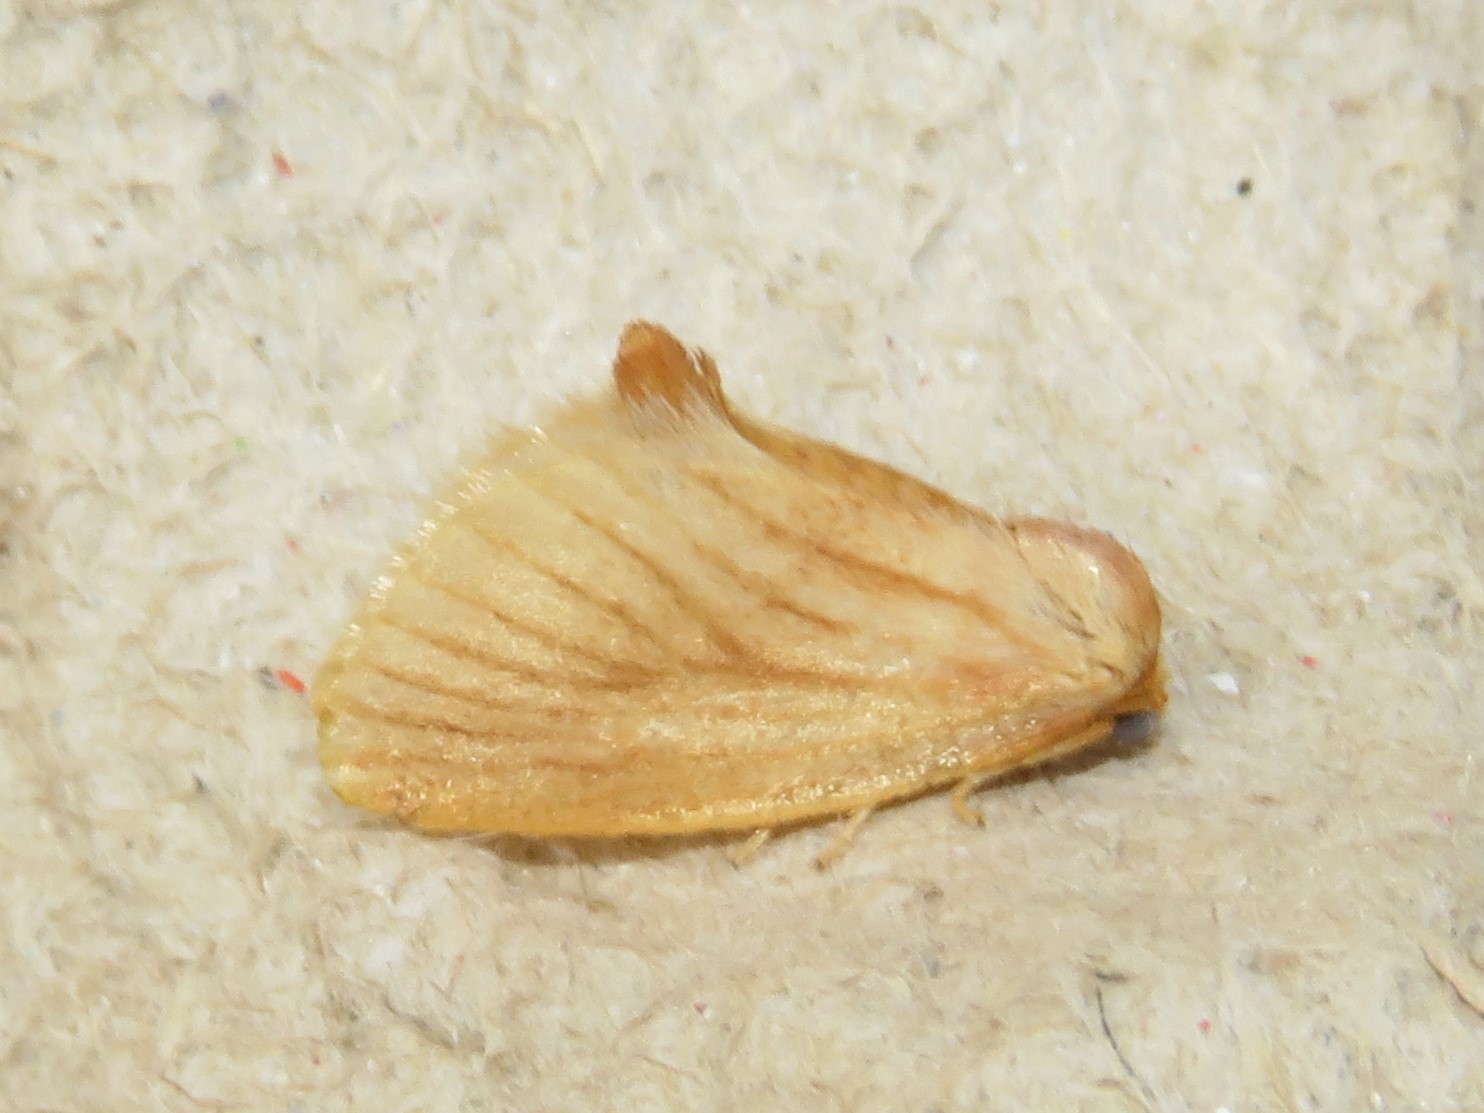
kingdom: Animalia
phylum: Arthropoda
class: Insecta
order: Lepidoptera
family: Limacodidae
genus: Tortricidia
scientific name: Tortricidia testacea
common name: Early button slug moth
